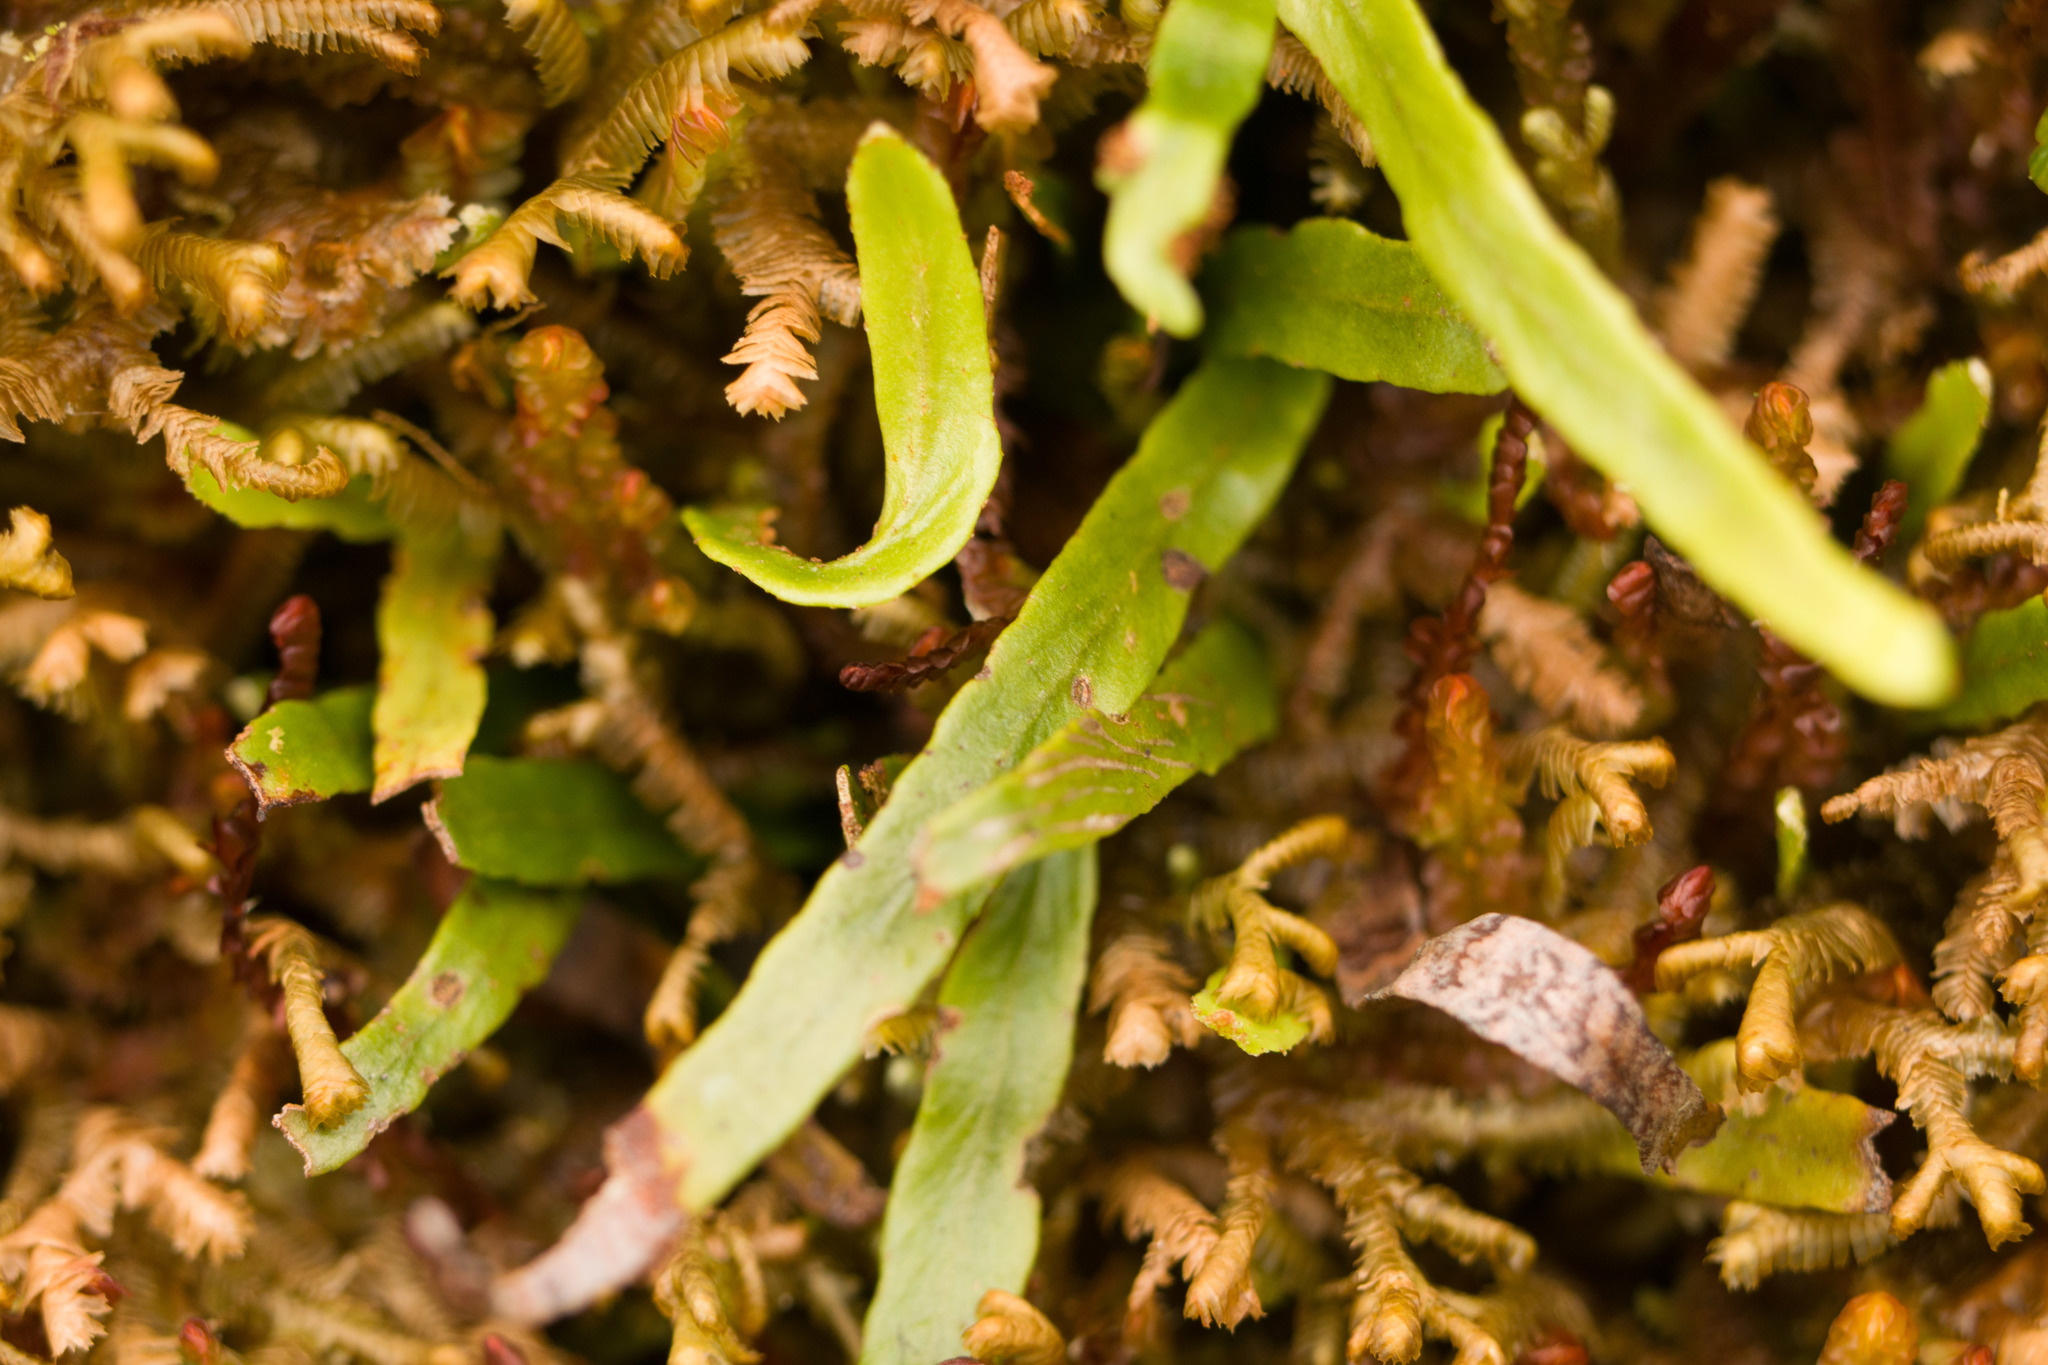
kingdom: Plantae
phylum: Tracheophyta
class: Polypodiopsida
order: Polypodiales
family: Polypodiaceae
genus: Adenophorus
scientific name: Adenophorus tenellus
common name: Kolokolo
